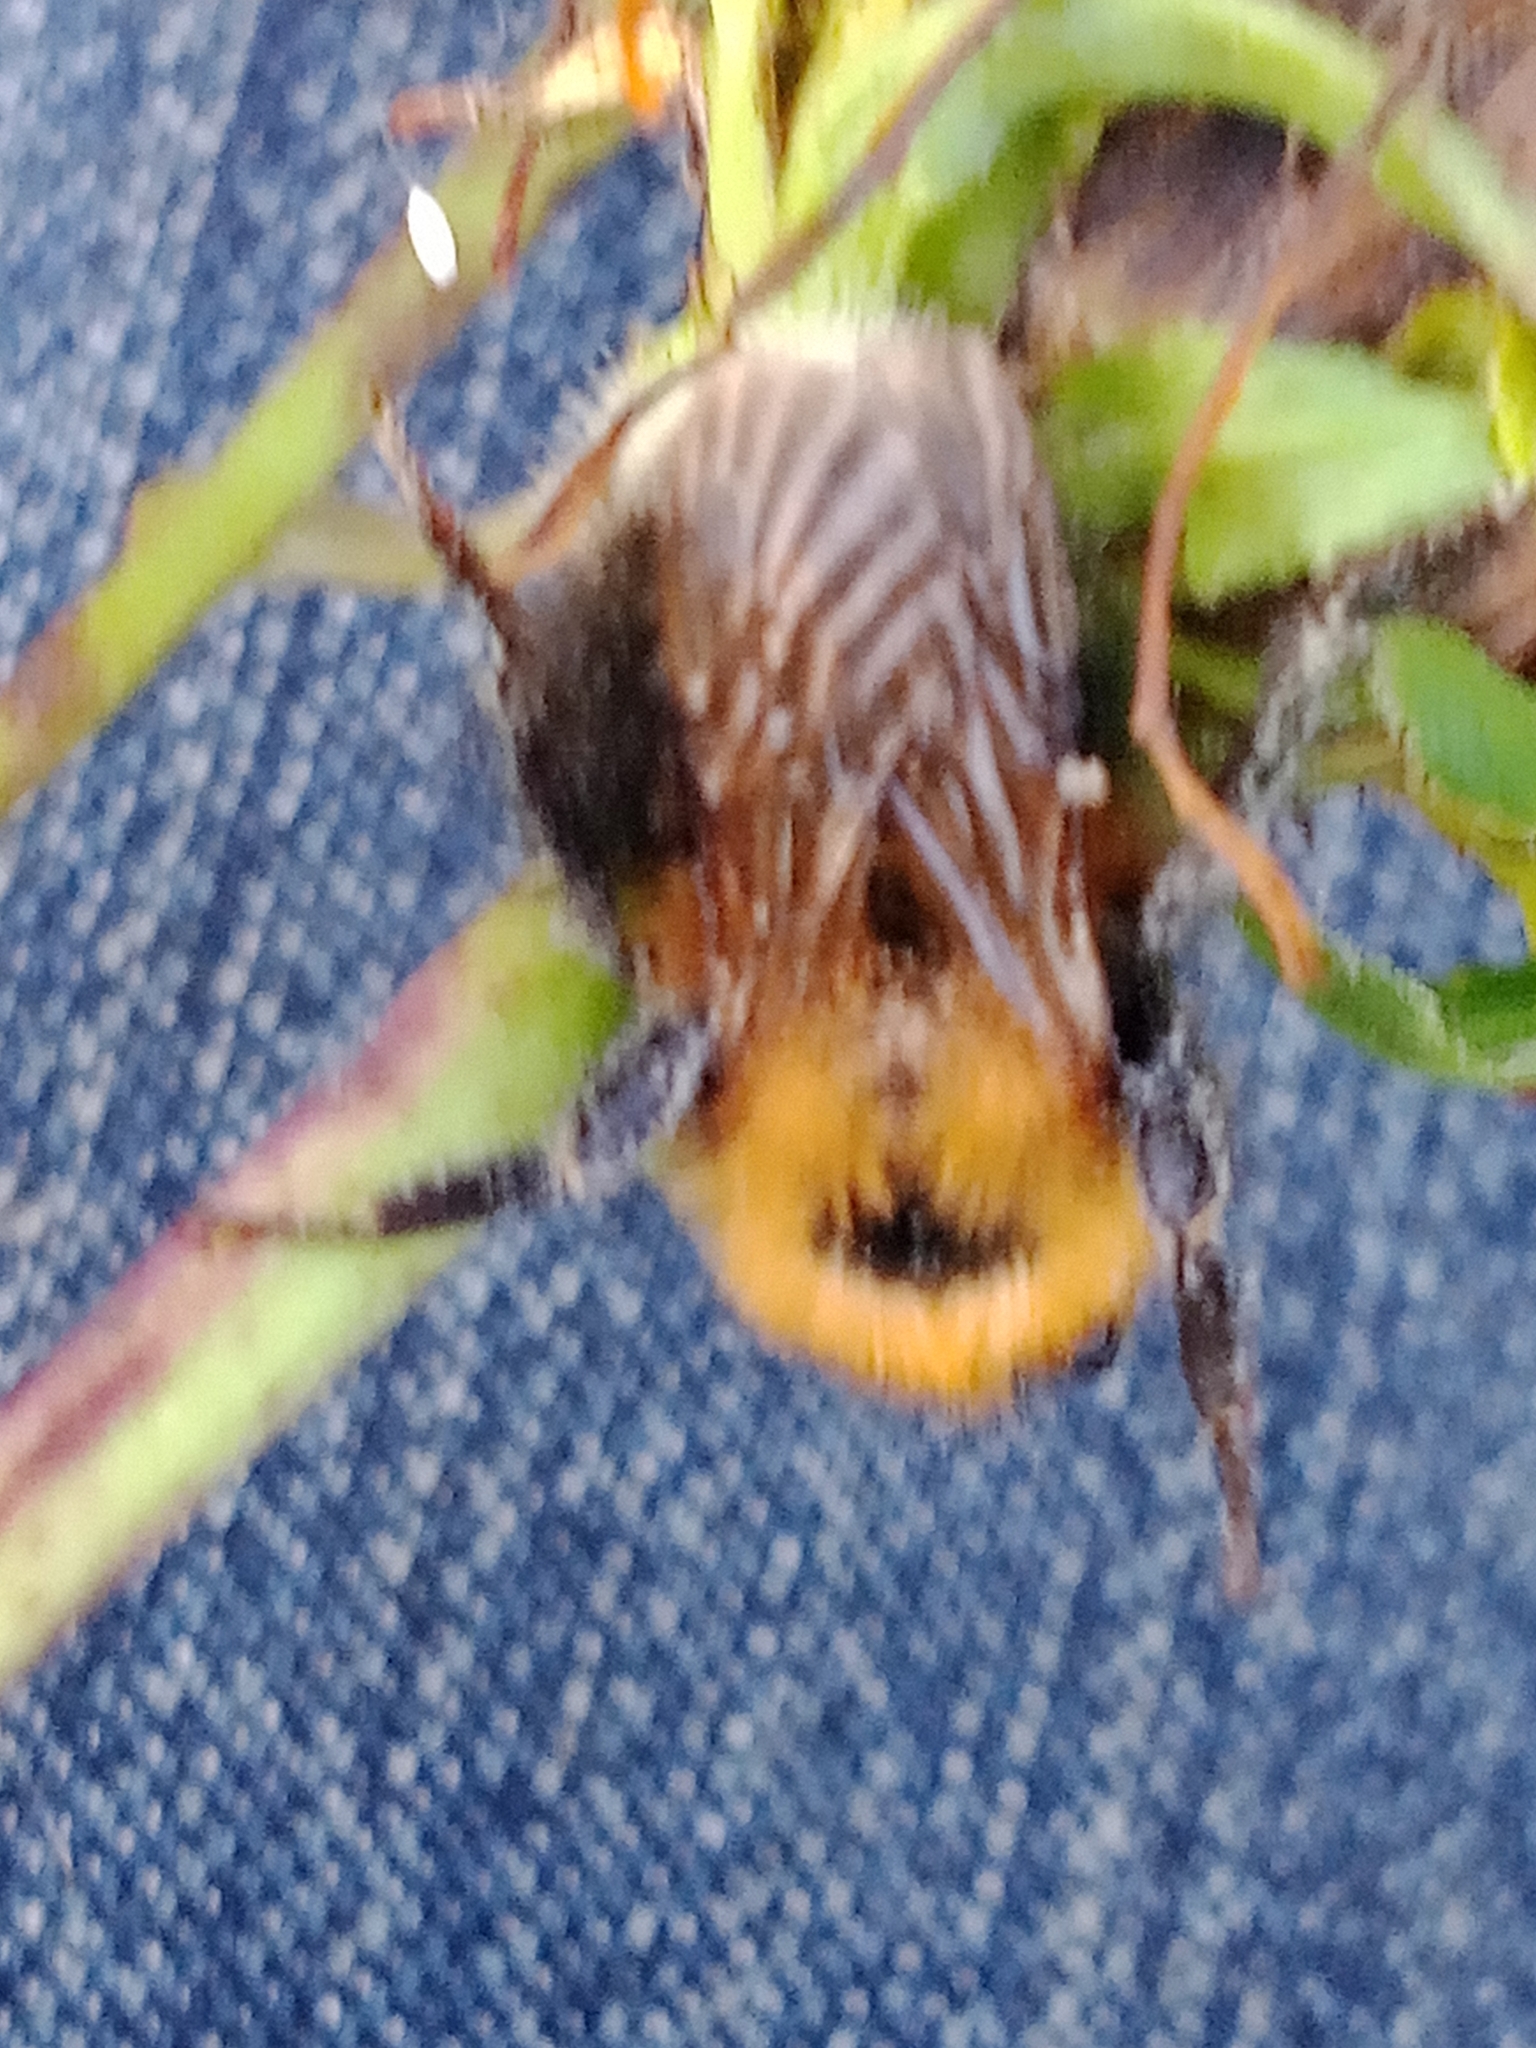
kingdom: Animalia
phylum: Arthropoda
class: Insecta
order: Hymenoptera
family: Apidae
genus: Bombus
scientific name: Bombus hypnorum
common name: New garden bumblebee
